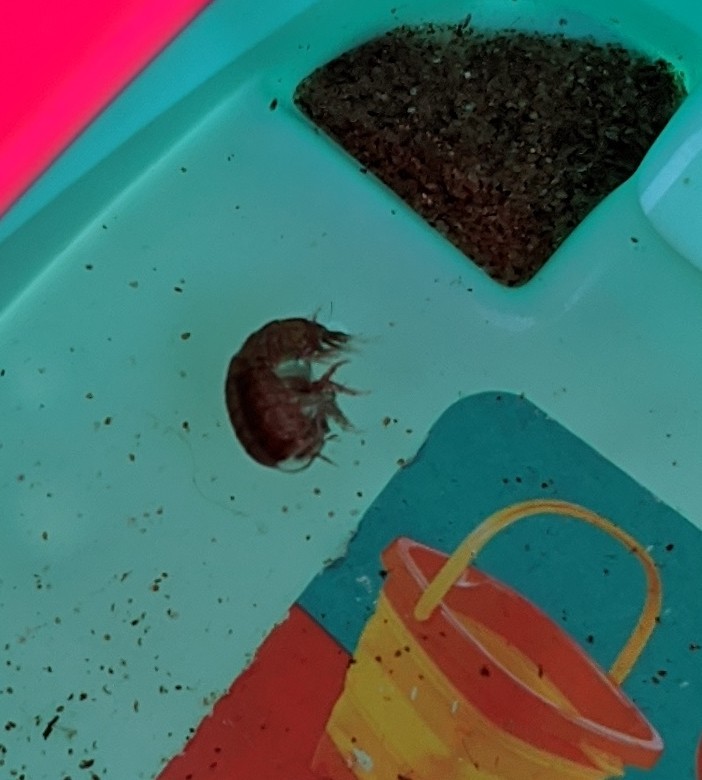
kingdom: Animalia
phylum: Arthropoda
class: Malacostraca
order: Amphipoda
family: Hyperiidae
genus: Hyperia
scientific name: Hyperia galba
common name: Big-eye amphipod
